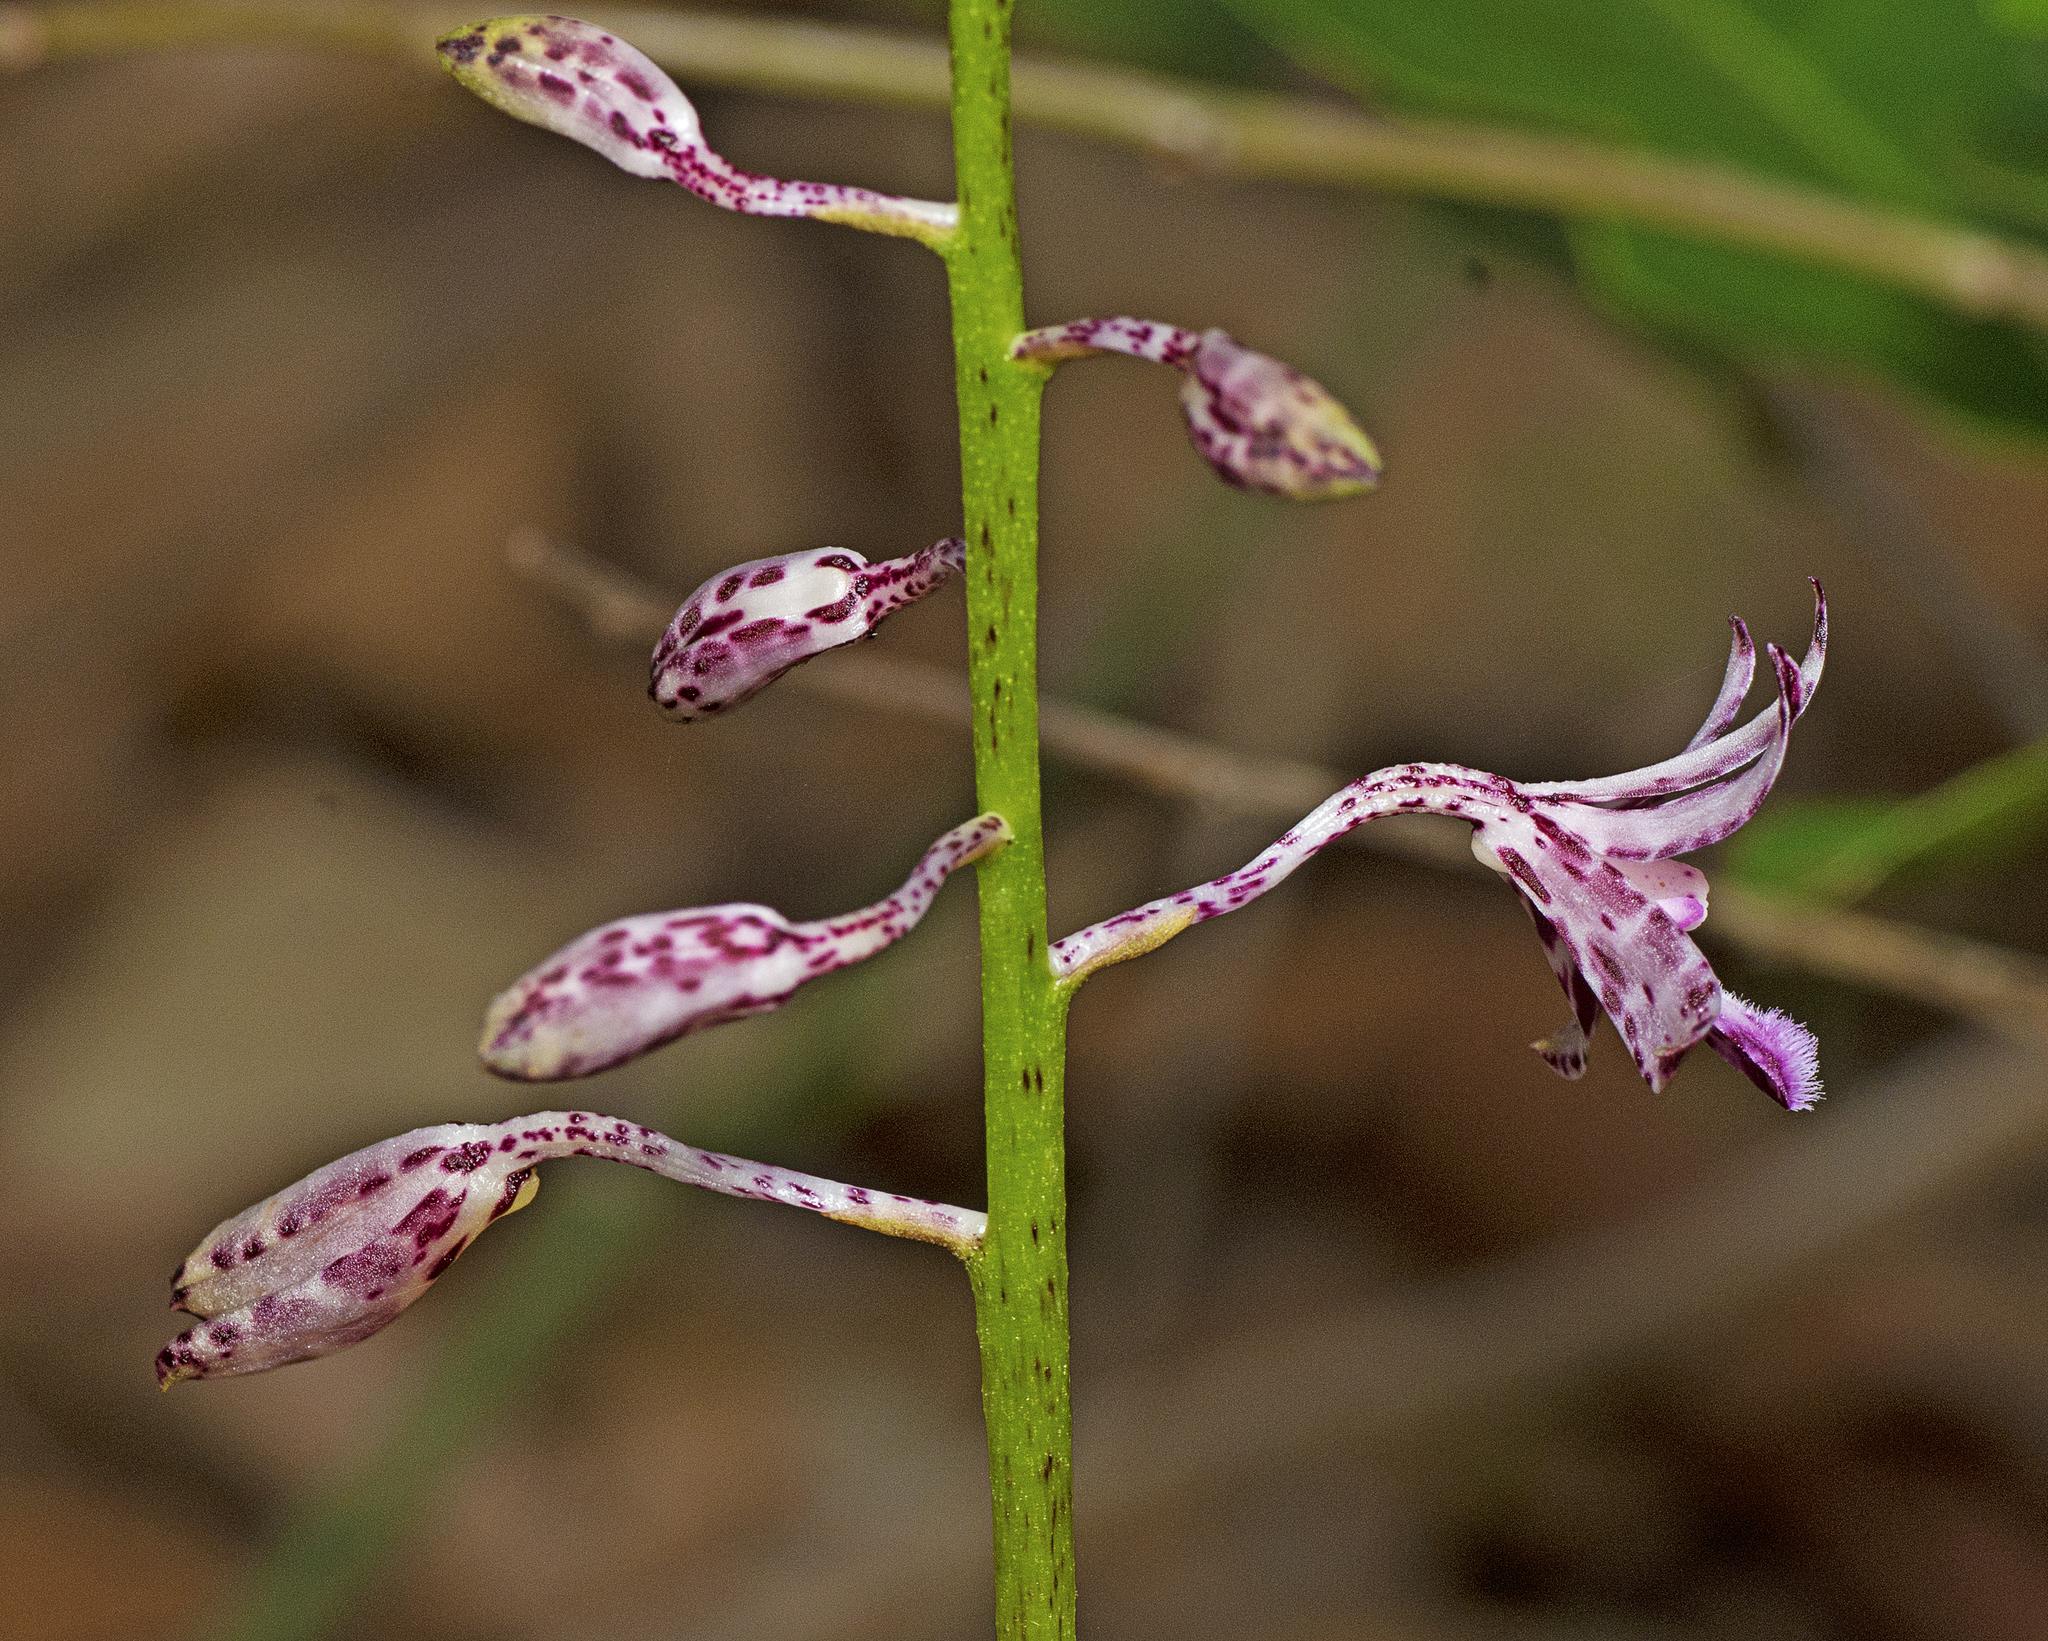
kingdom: Plantae
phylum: Tracheophyta
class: Liliopsida
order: Asparagales
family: Orchidaceae
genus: Dipodium
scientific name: Dipodium variegatum
